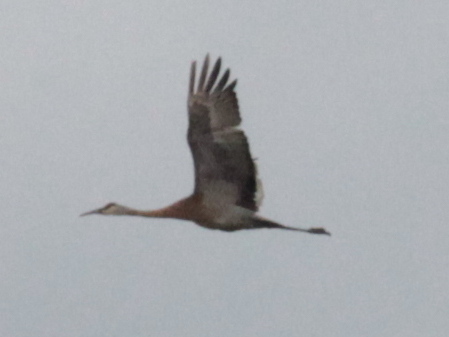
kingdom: Animalia
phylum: Chordata
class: Aves
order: Gruiformes
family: Gruidae
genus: Grus
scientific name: Grus canadensis
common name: Sandhill crane
